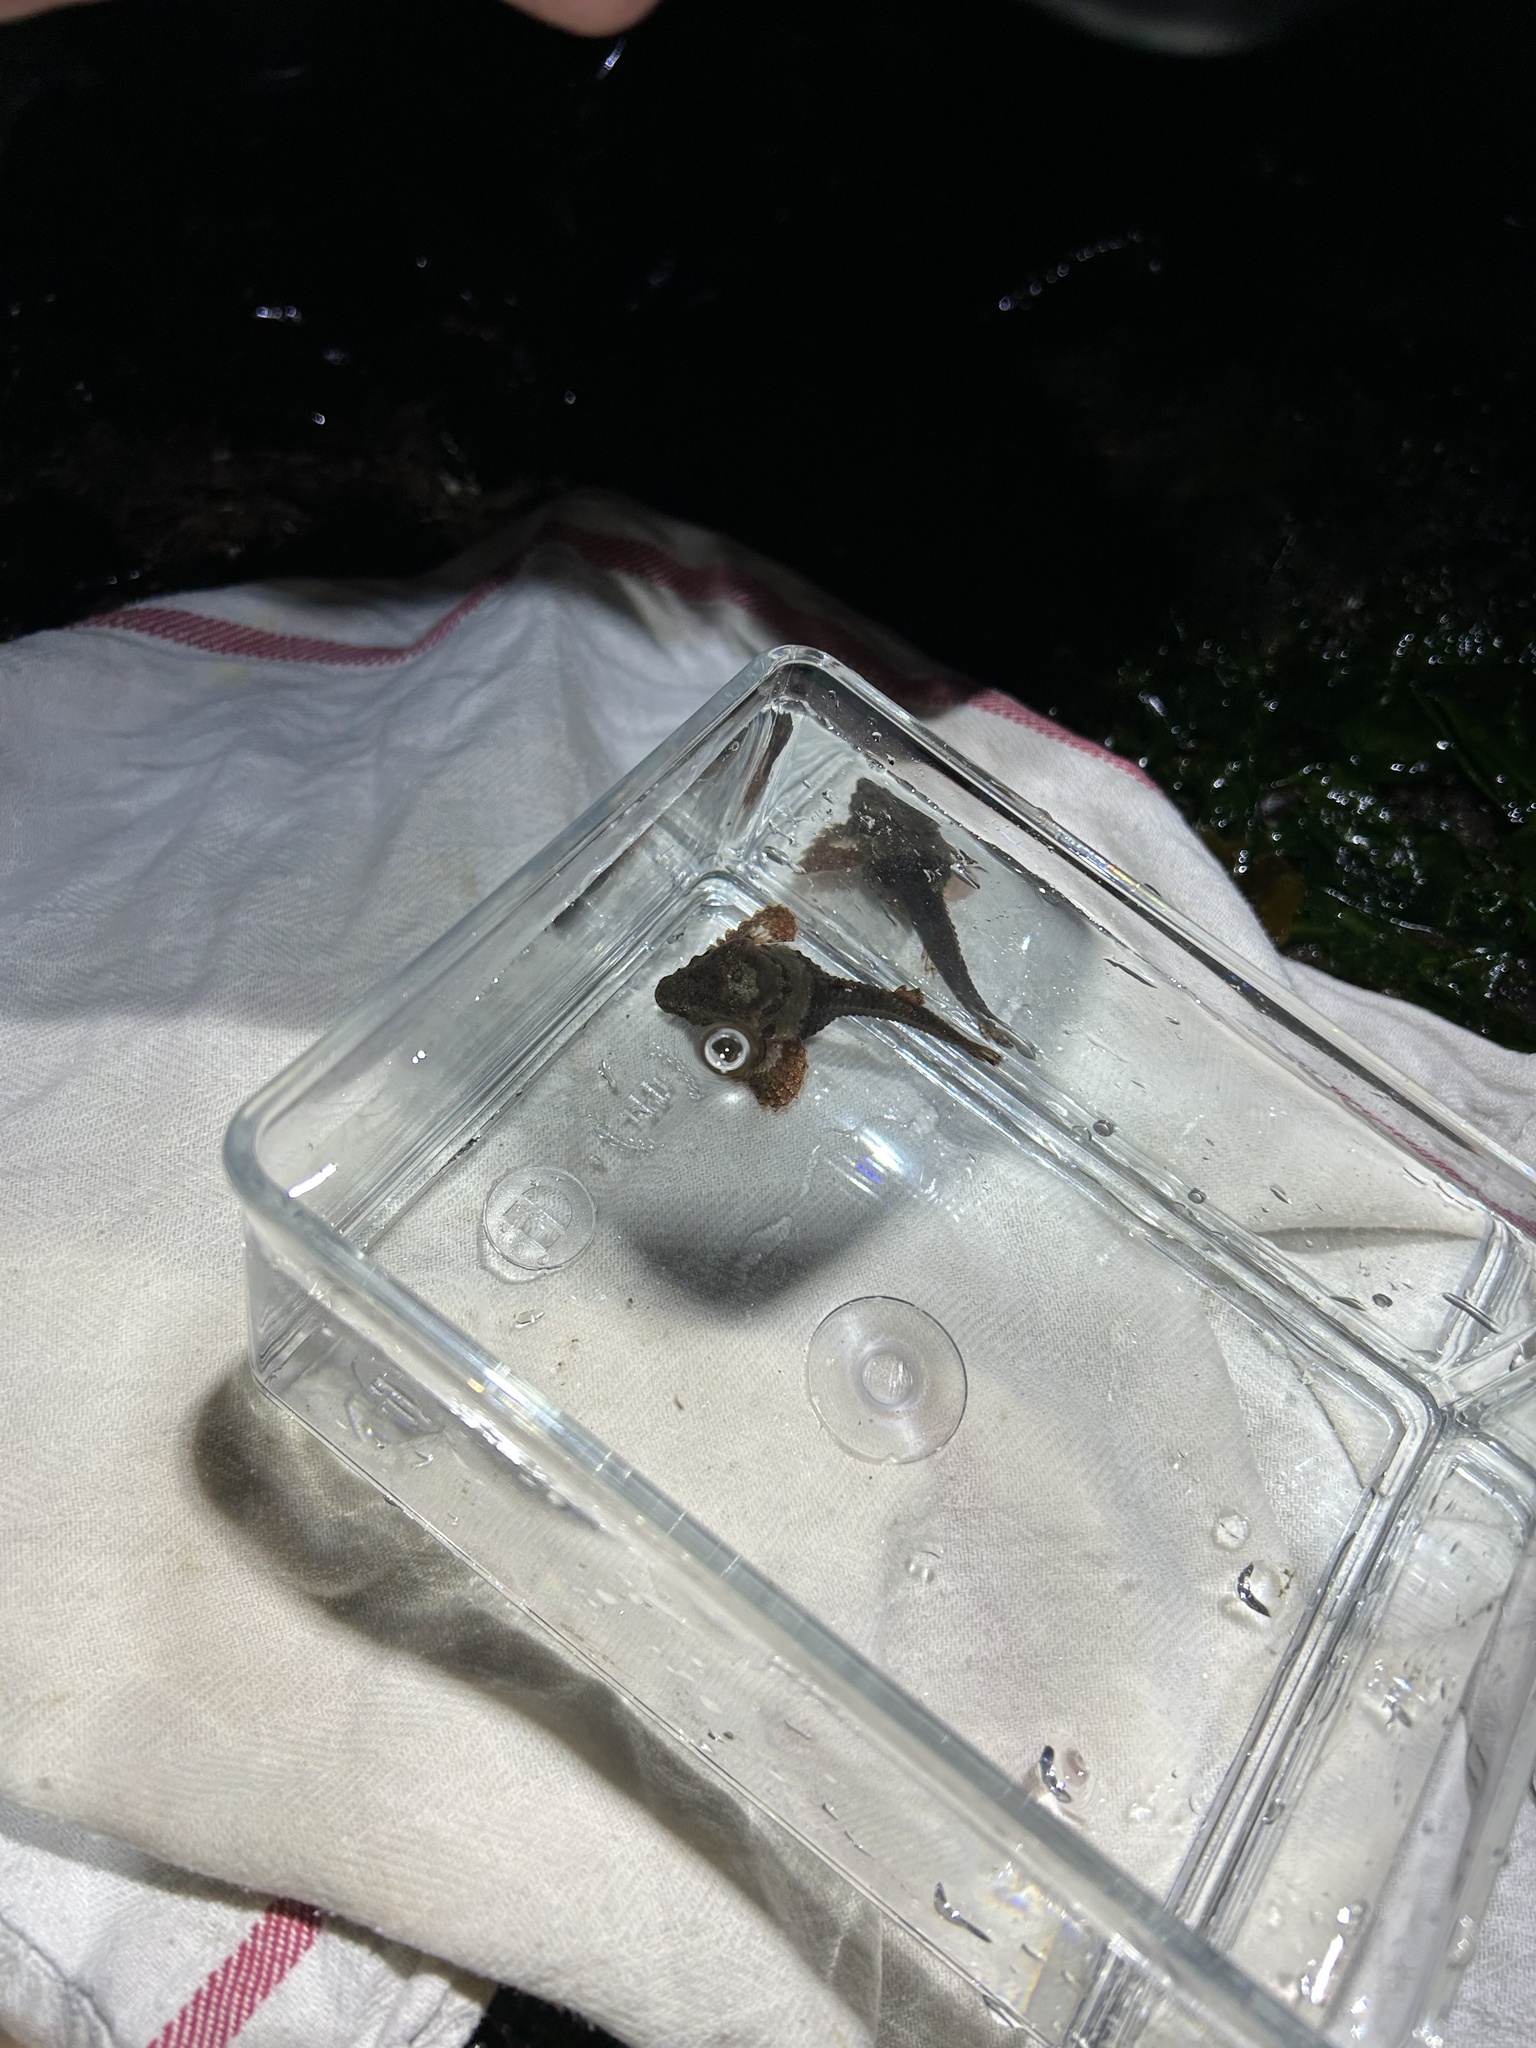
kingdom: Animalia
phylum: Chordata
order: Scorpaeniformes
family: Agonidae
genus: Bothragonus
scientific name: Bothragonus swanii
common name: Rockhead
